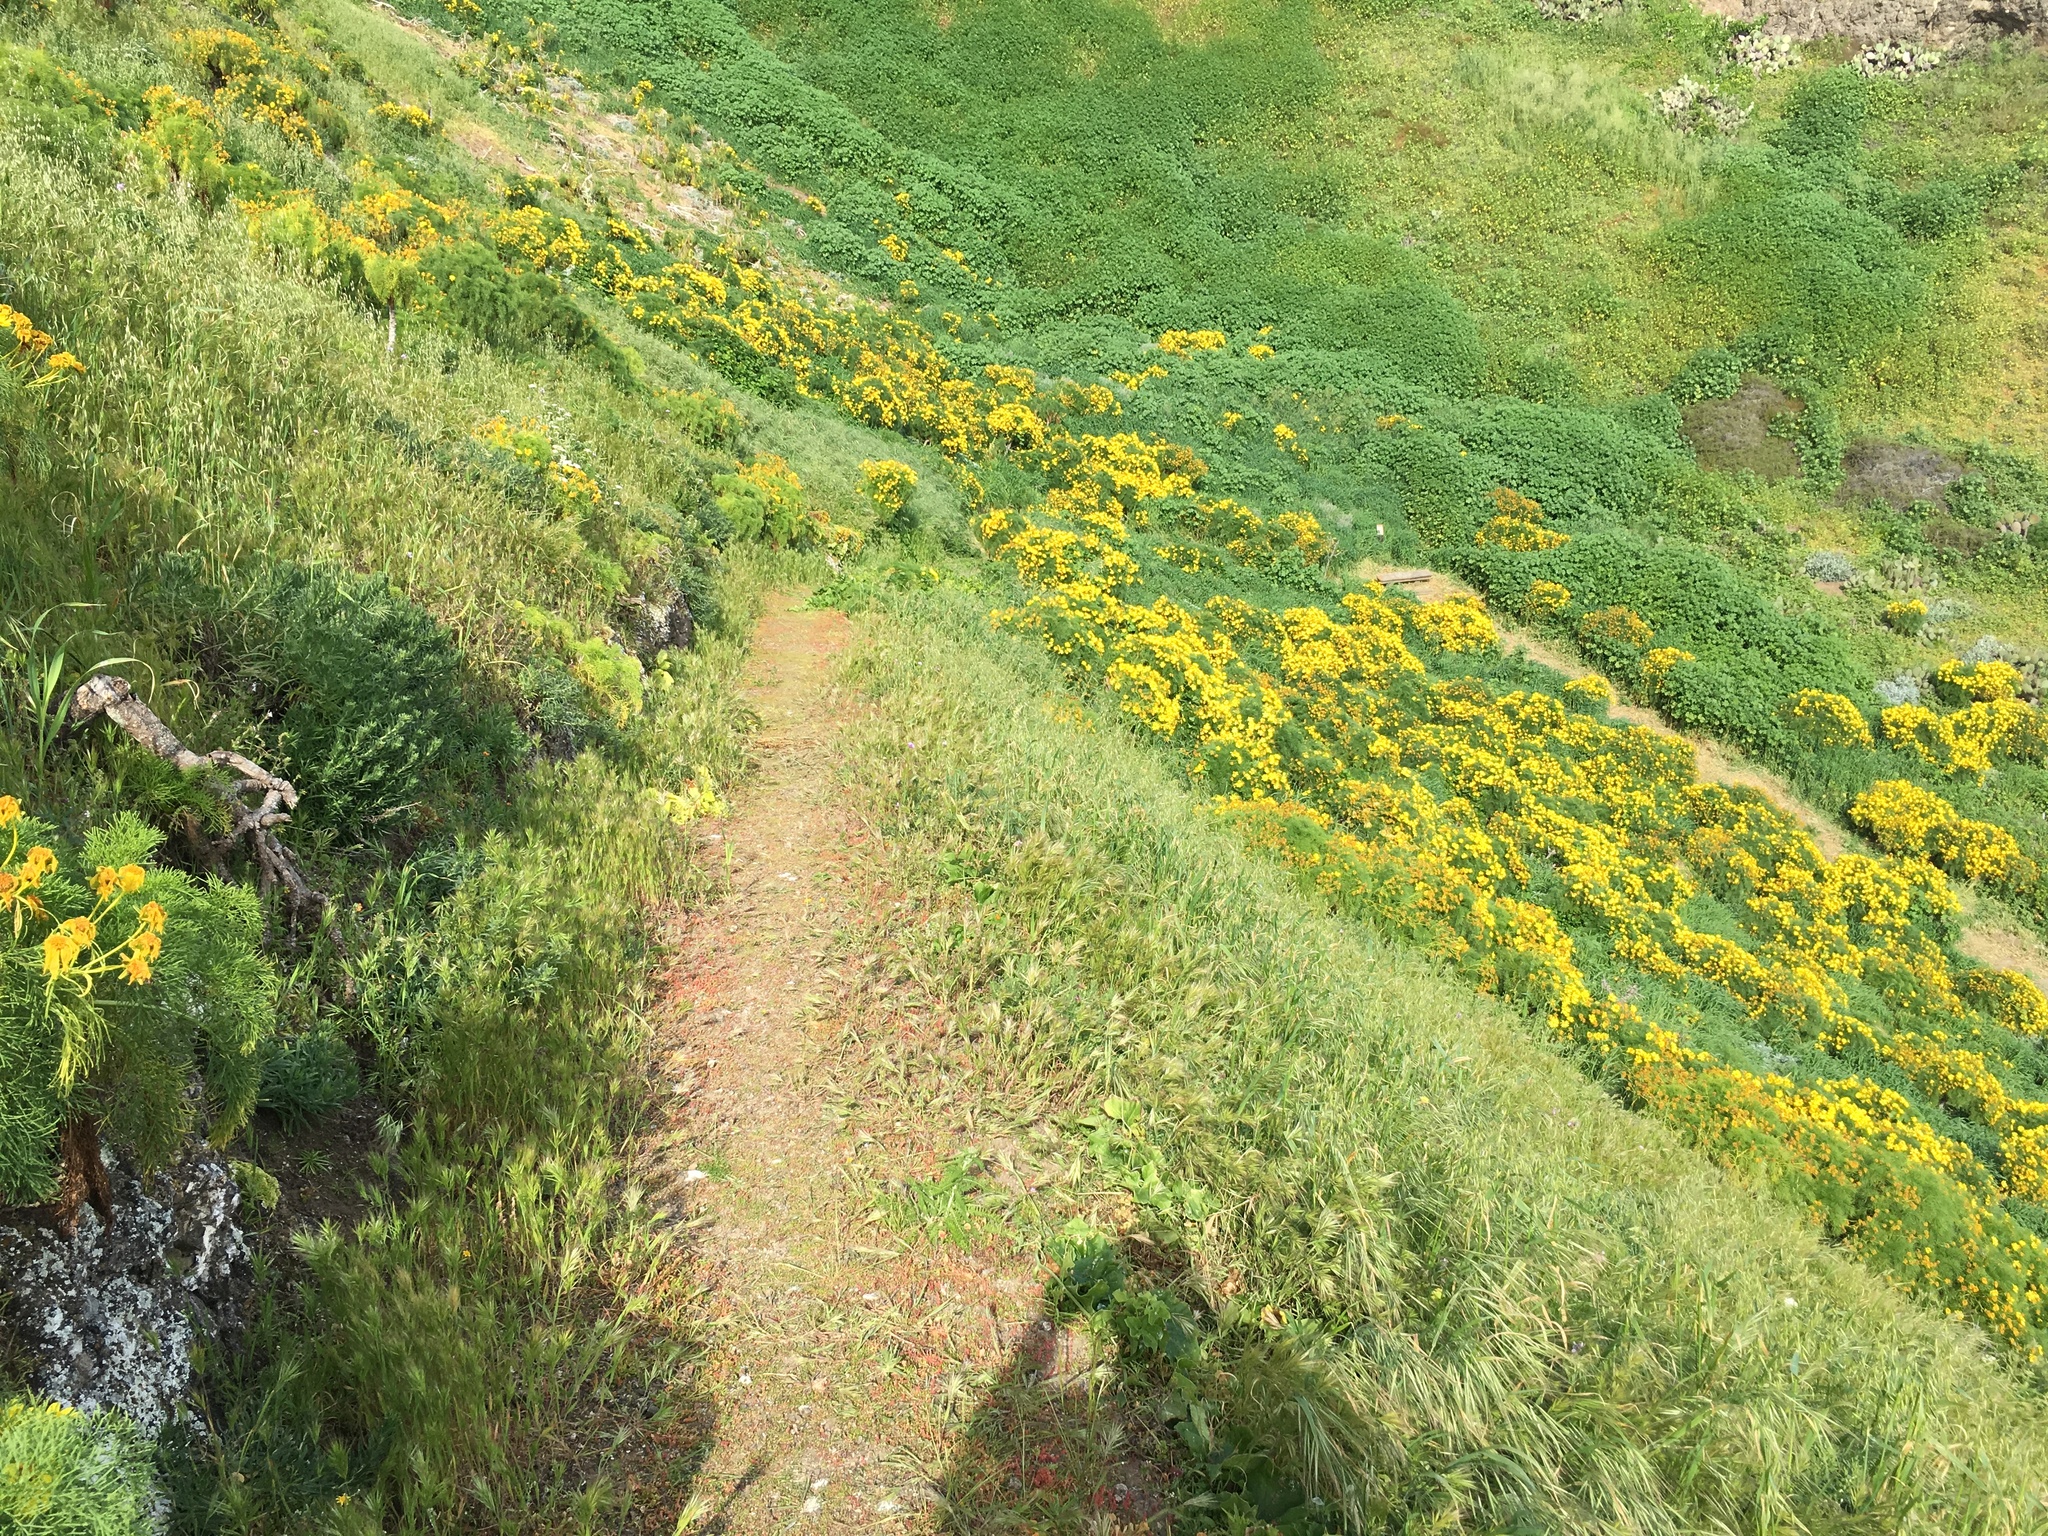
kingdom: Plantae
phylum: Tracheophyta
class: Magnoliopsida
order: Asterales
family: Asteraceae
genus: Coreopsis
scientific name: Coreopsis gigantea
